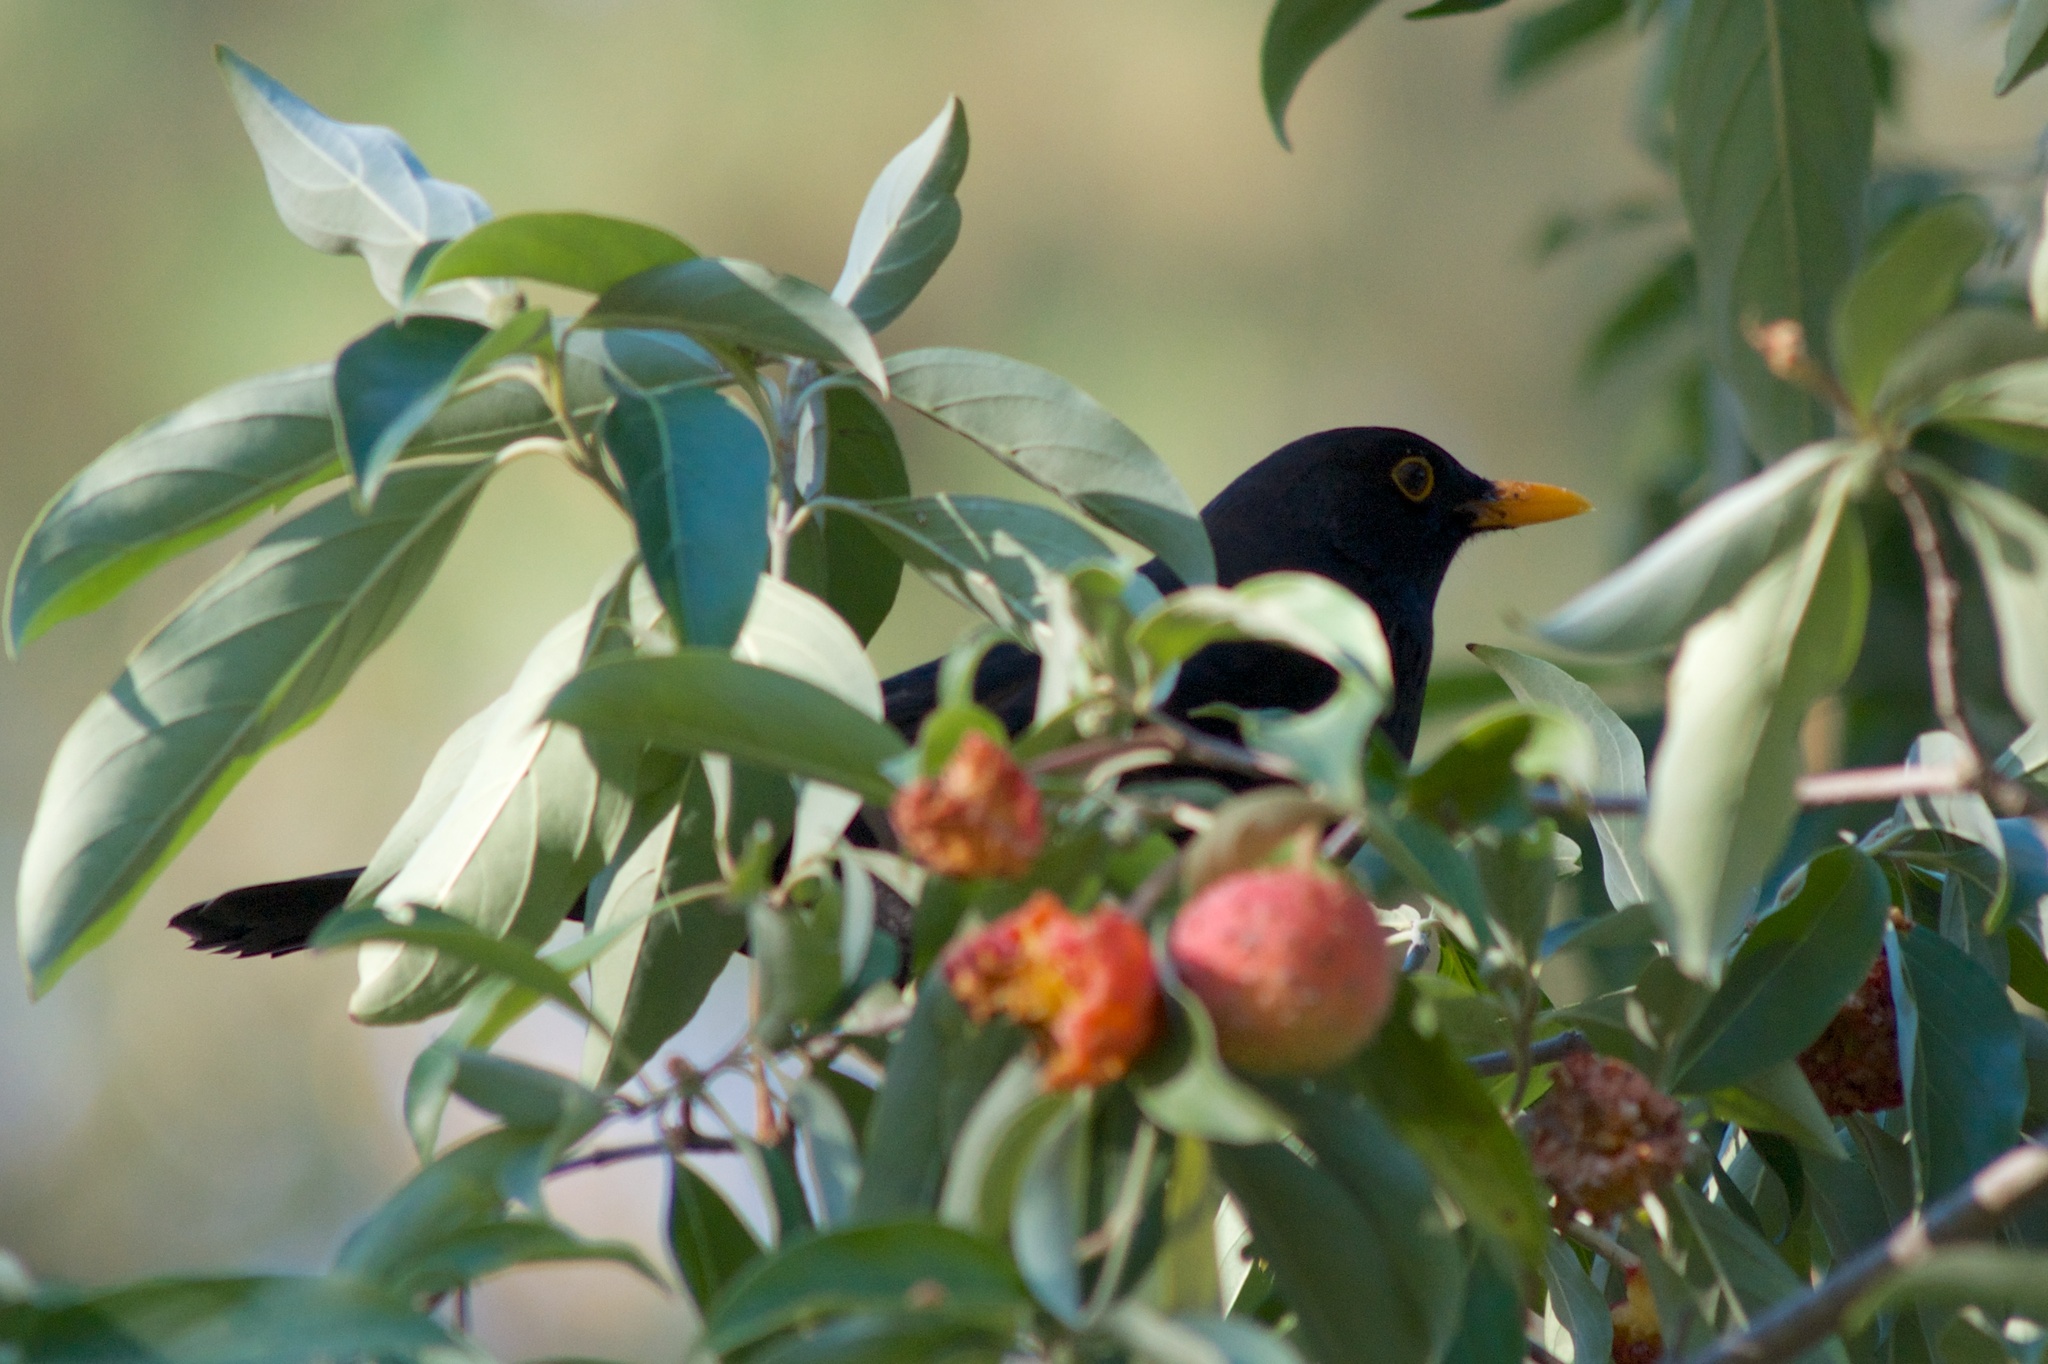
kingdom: Animalia
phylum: Chordata
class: Aves
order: Passeriformes
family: Turdidae
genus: Turdus
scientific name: Turdus merula
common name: Common blackbird
